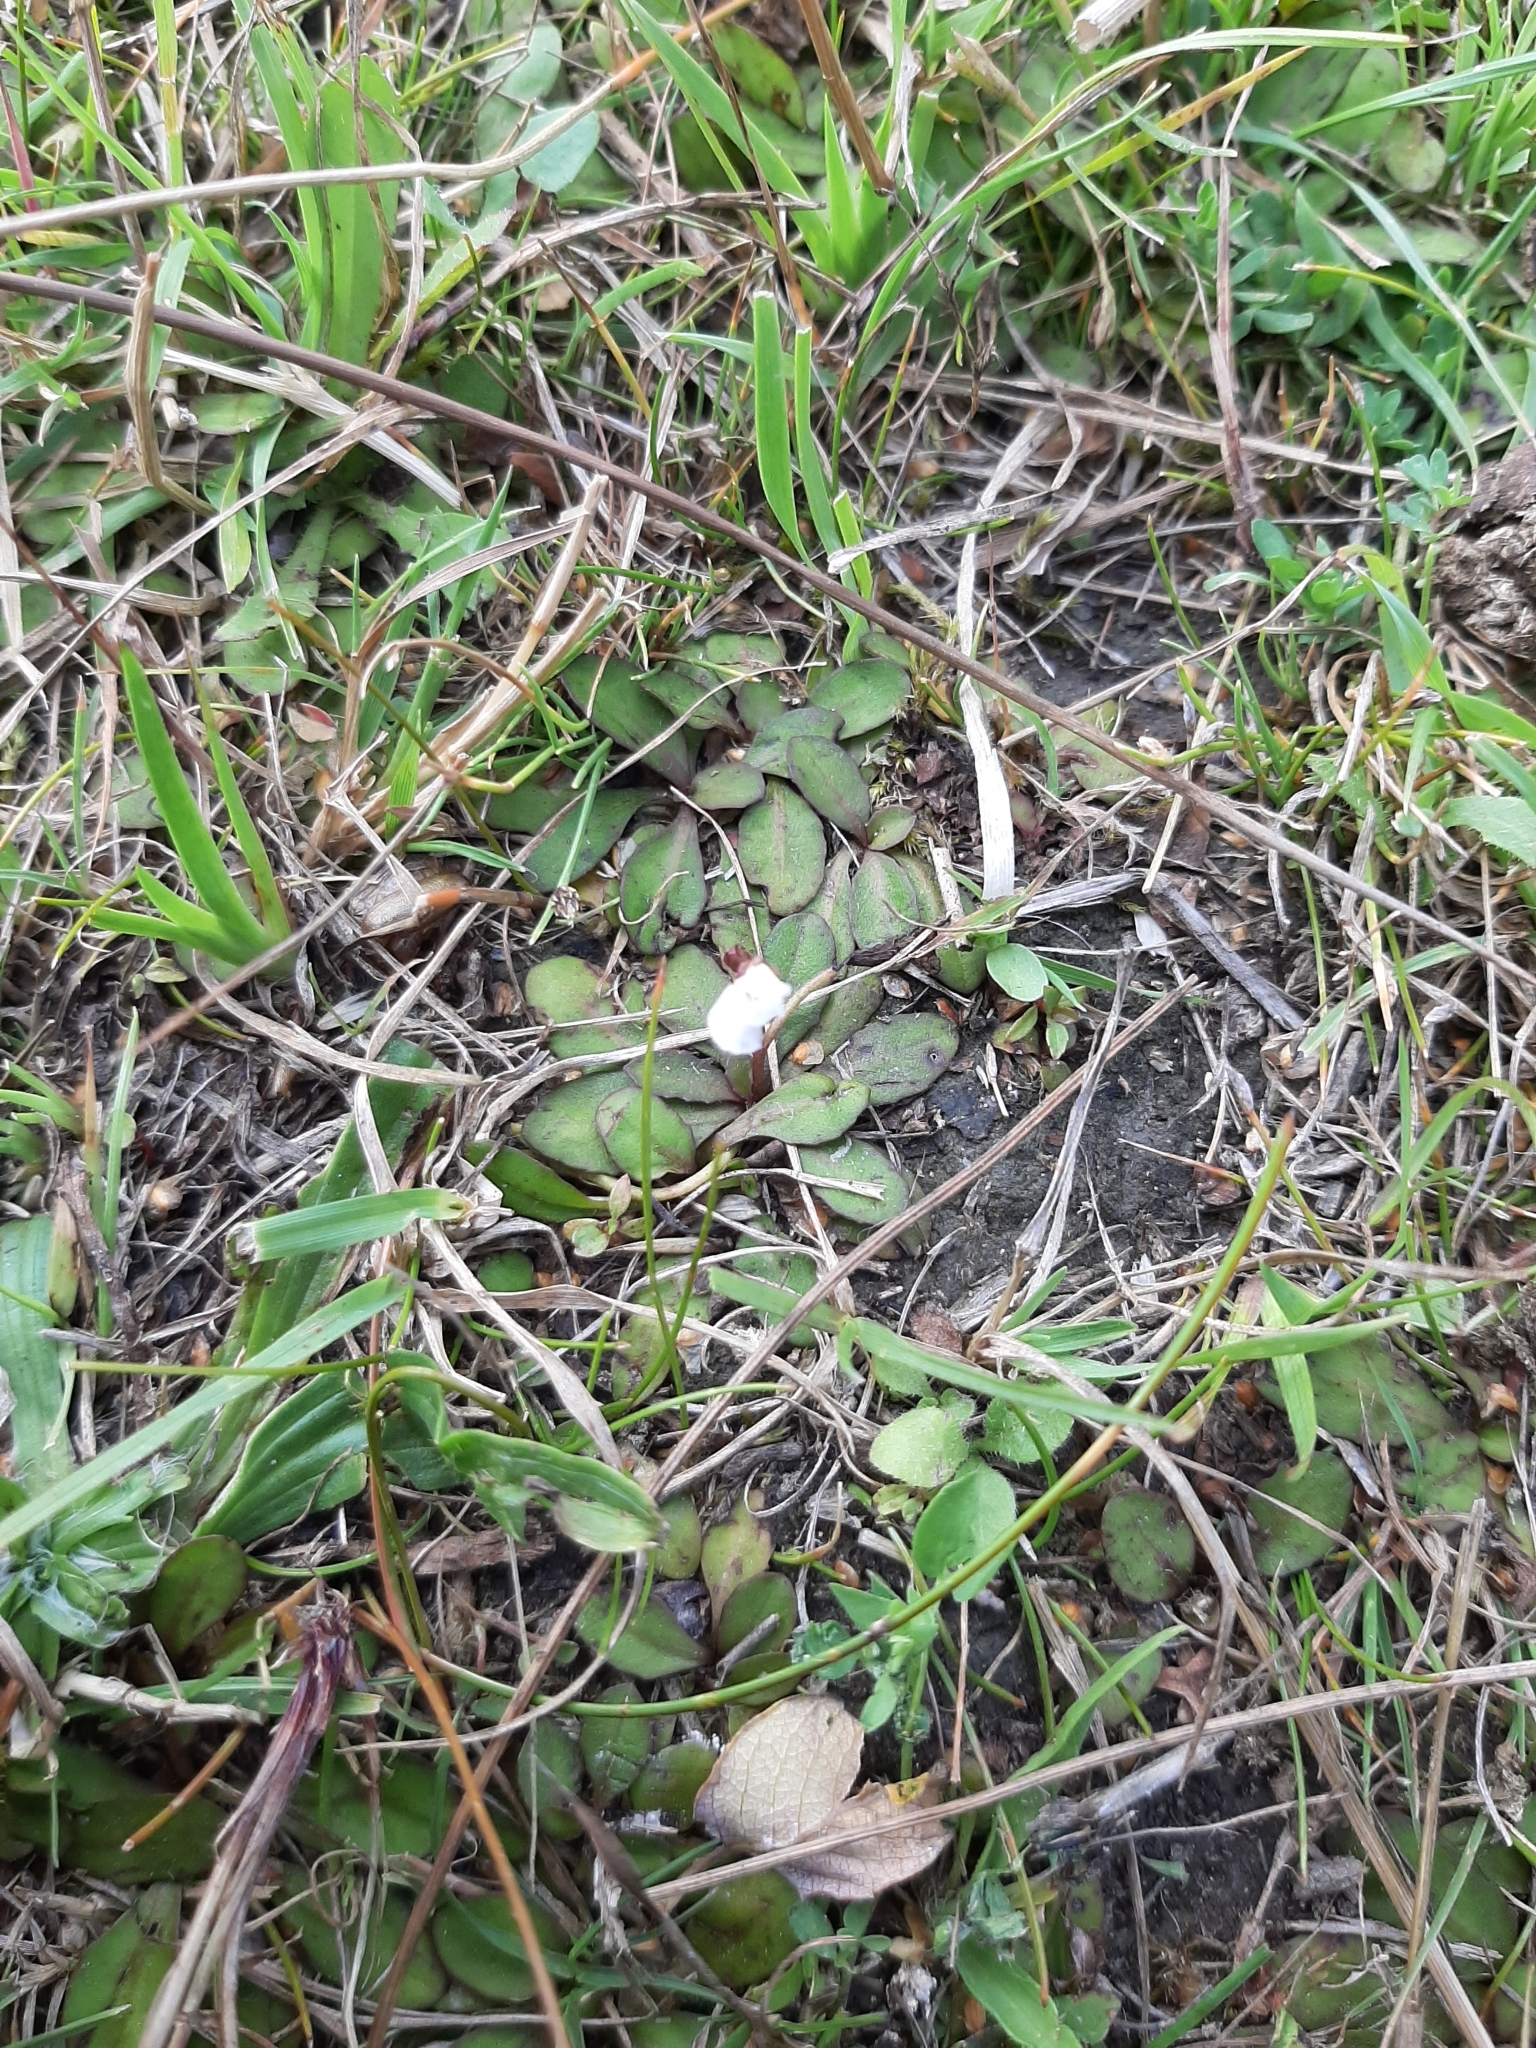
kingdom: Plantae
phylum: Tracheophyta
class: Magnoliopsida
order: Lamiales
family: Mazaceae
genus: Mazus
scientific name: Mazus novaezeelandiae
